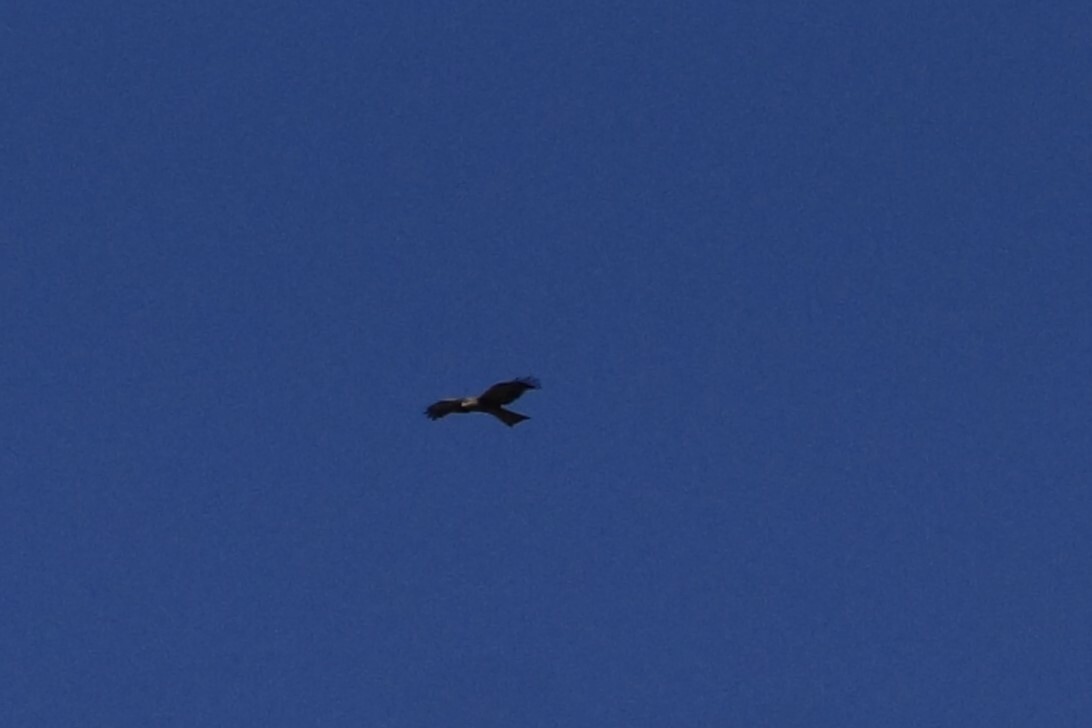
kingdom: Animalia
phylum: Chordata
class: Aves
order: Accipitriformes
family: Accipitridae
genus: Milvus
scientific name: Milvus migrans
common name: Black kite
